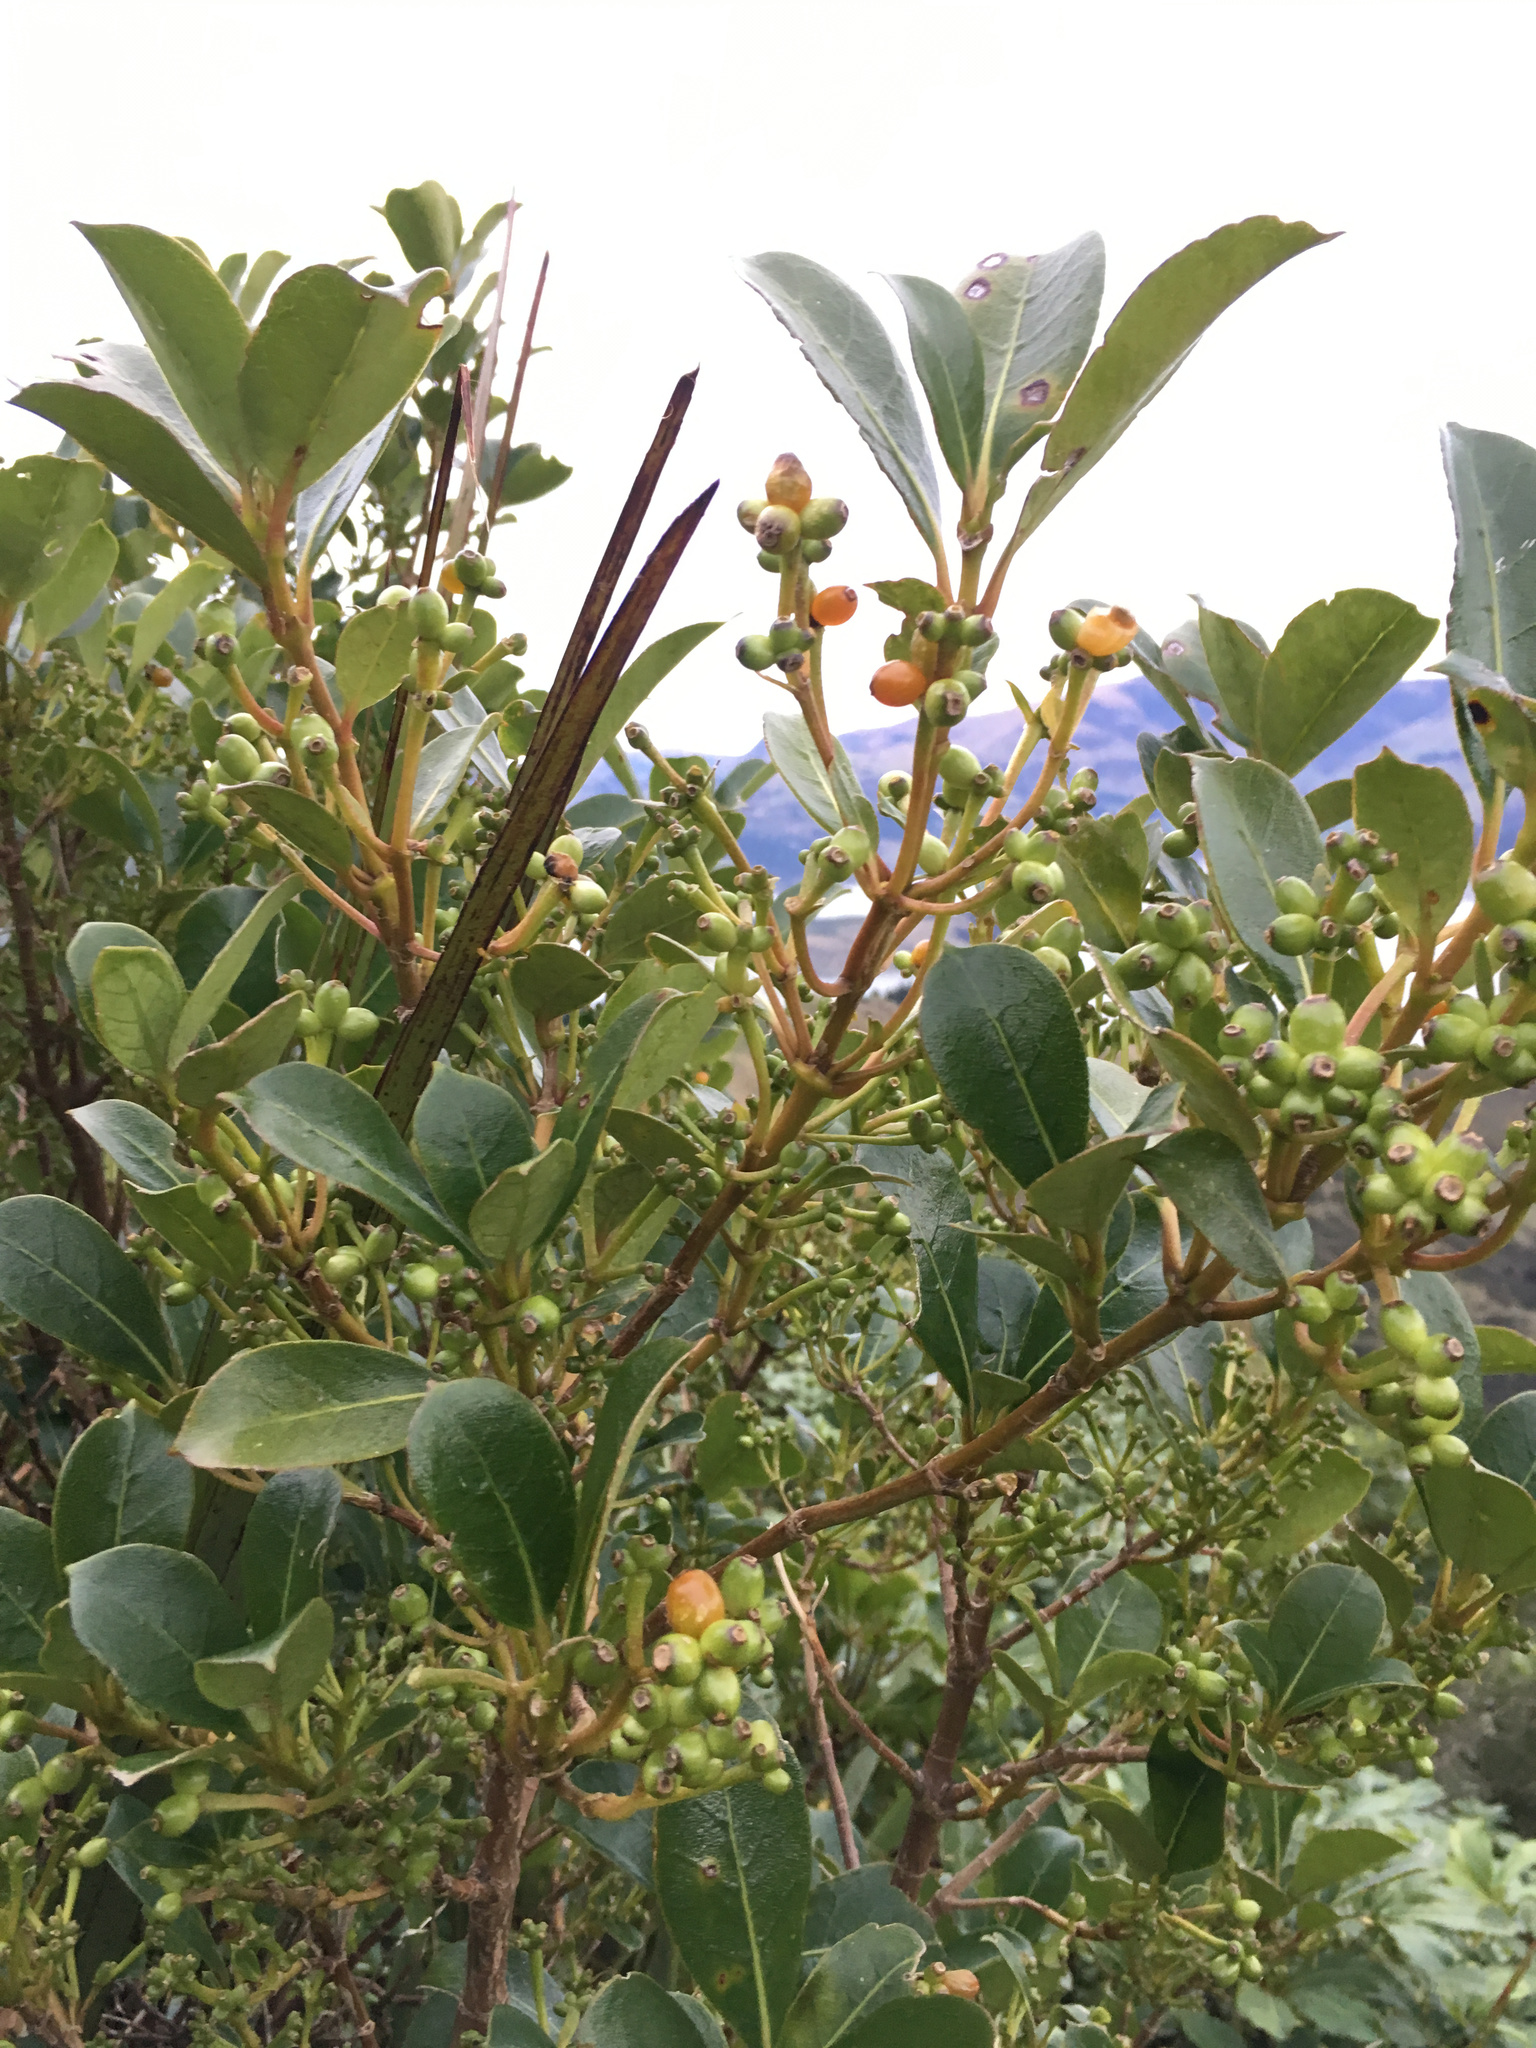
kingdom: Plantae
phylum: Tracheophyta
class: Magnoliopsida
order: Gentianales
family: Rubiaceae
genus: Coprosma
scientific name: Coprosma lucida
